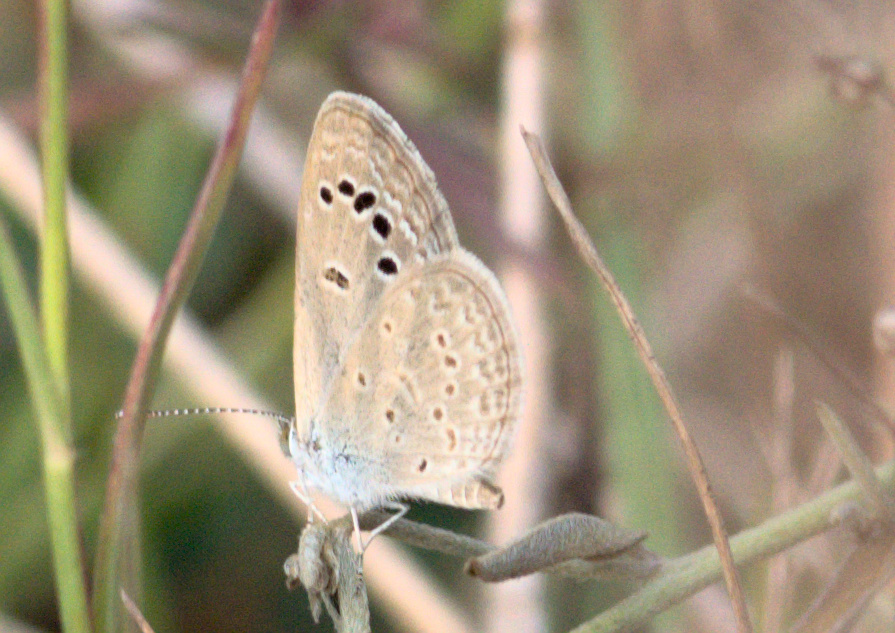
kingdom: Animalia
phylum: Arthropoda
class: Insecta
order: Lepidoptera
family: Lycaenidae
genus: Zizina
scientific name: Zizina otis
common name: Lesser grass blue
